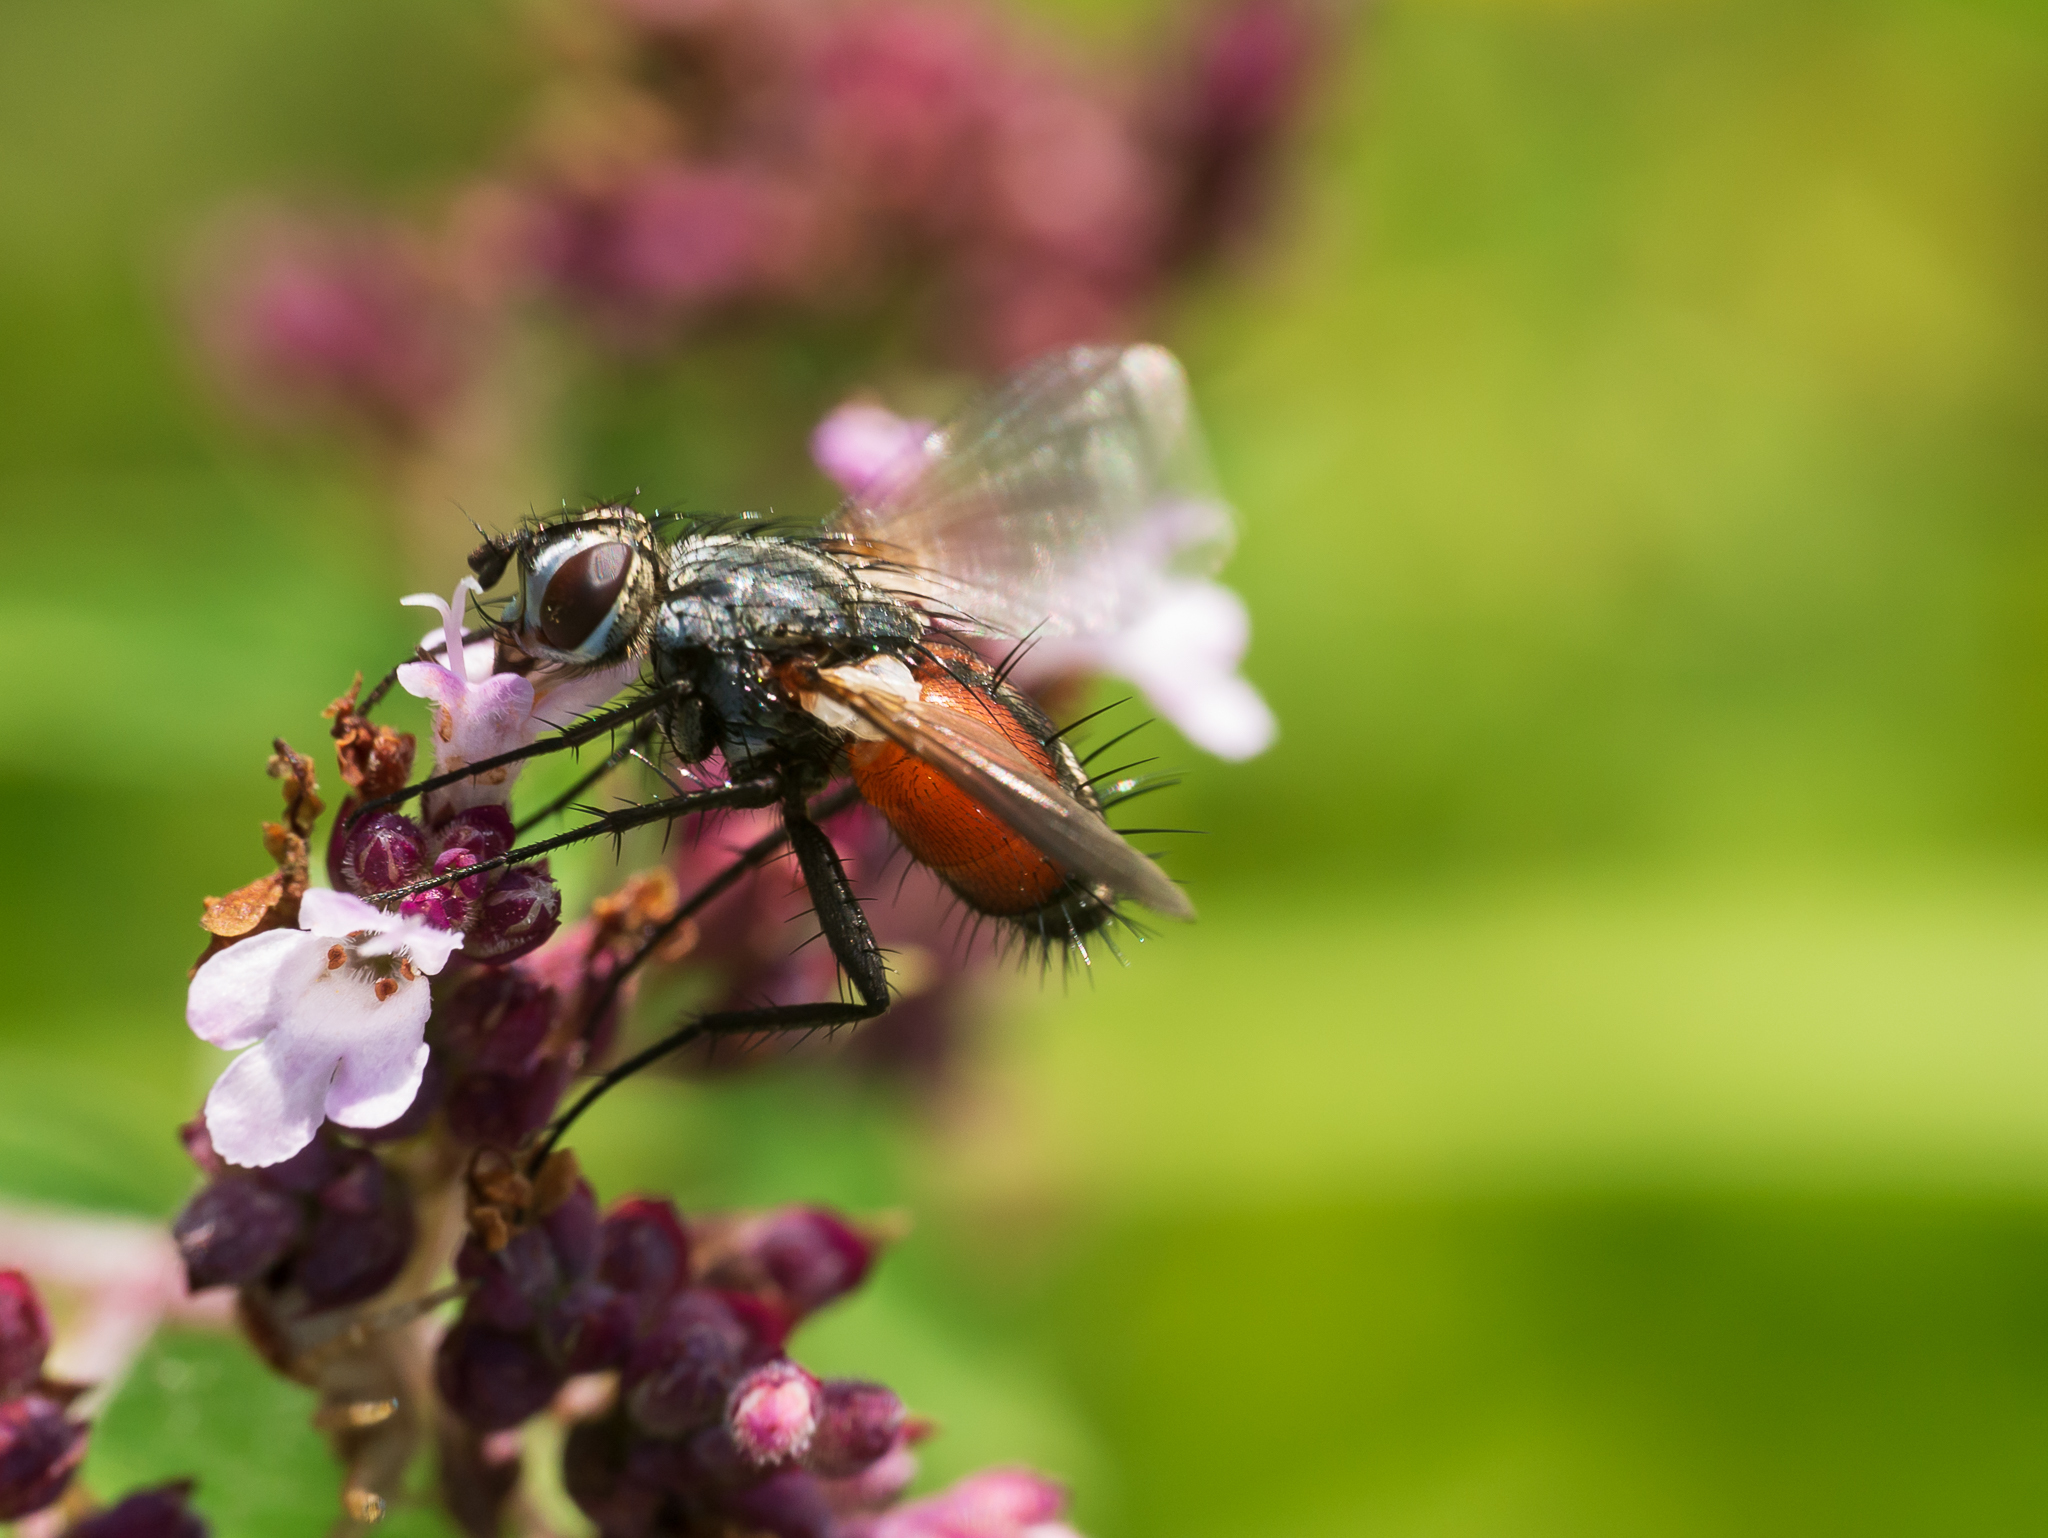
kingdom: Animalia
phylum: Arthropoda
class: Insecta
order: Diptera
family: Tachinidae
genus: Eriothrix
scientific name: Eriothrix rufomaculatus
